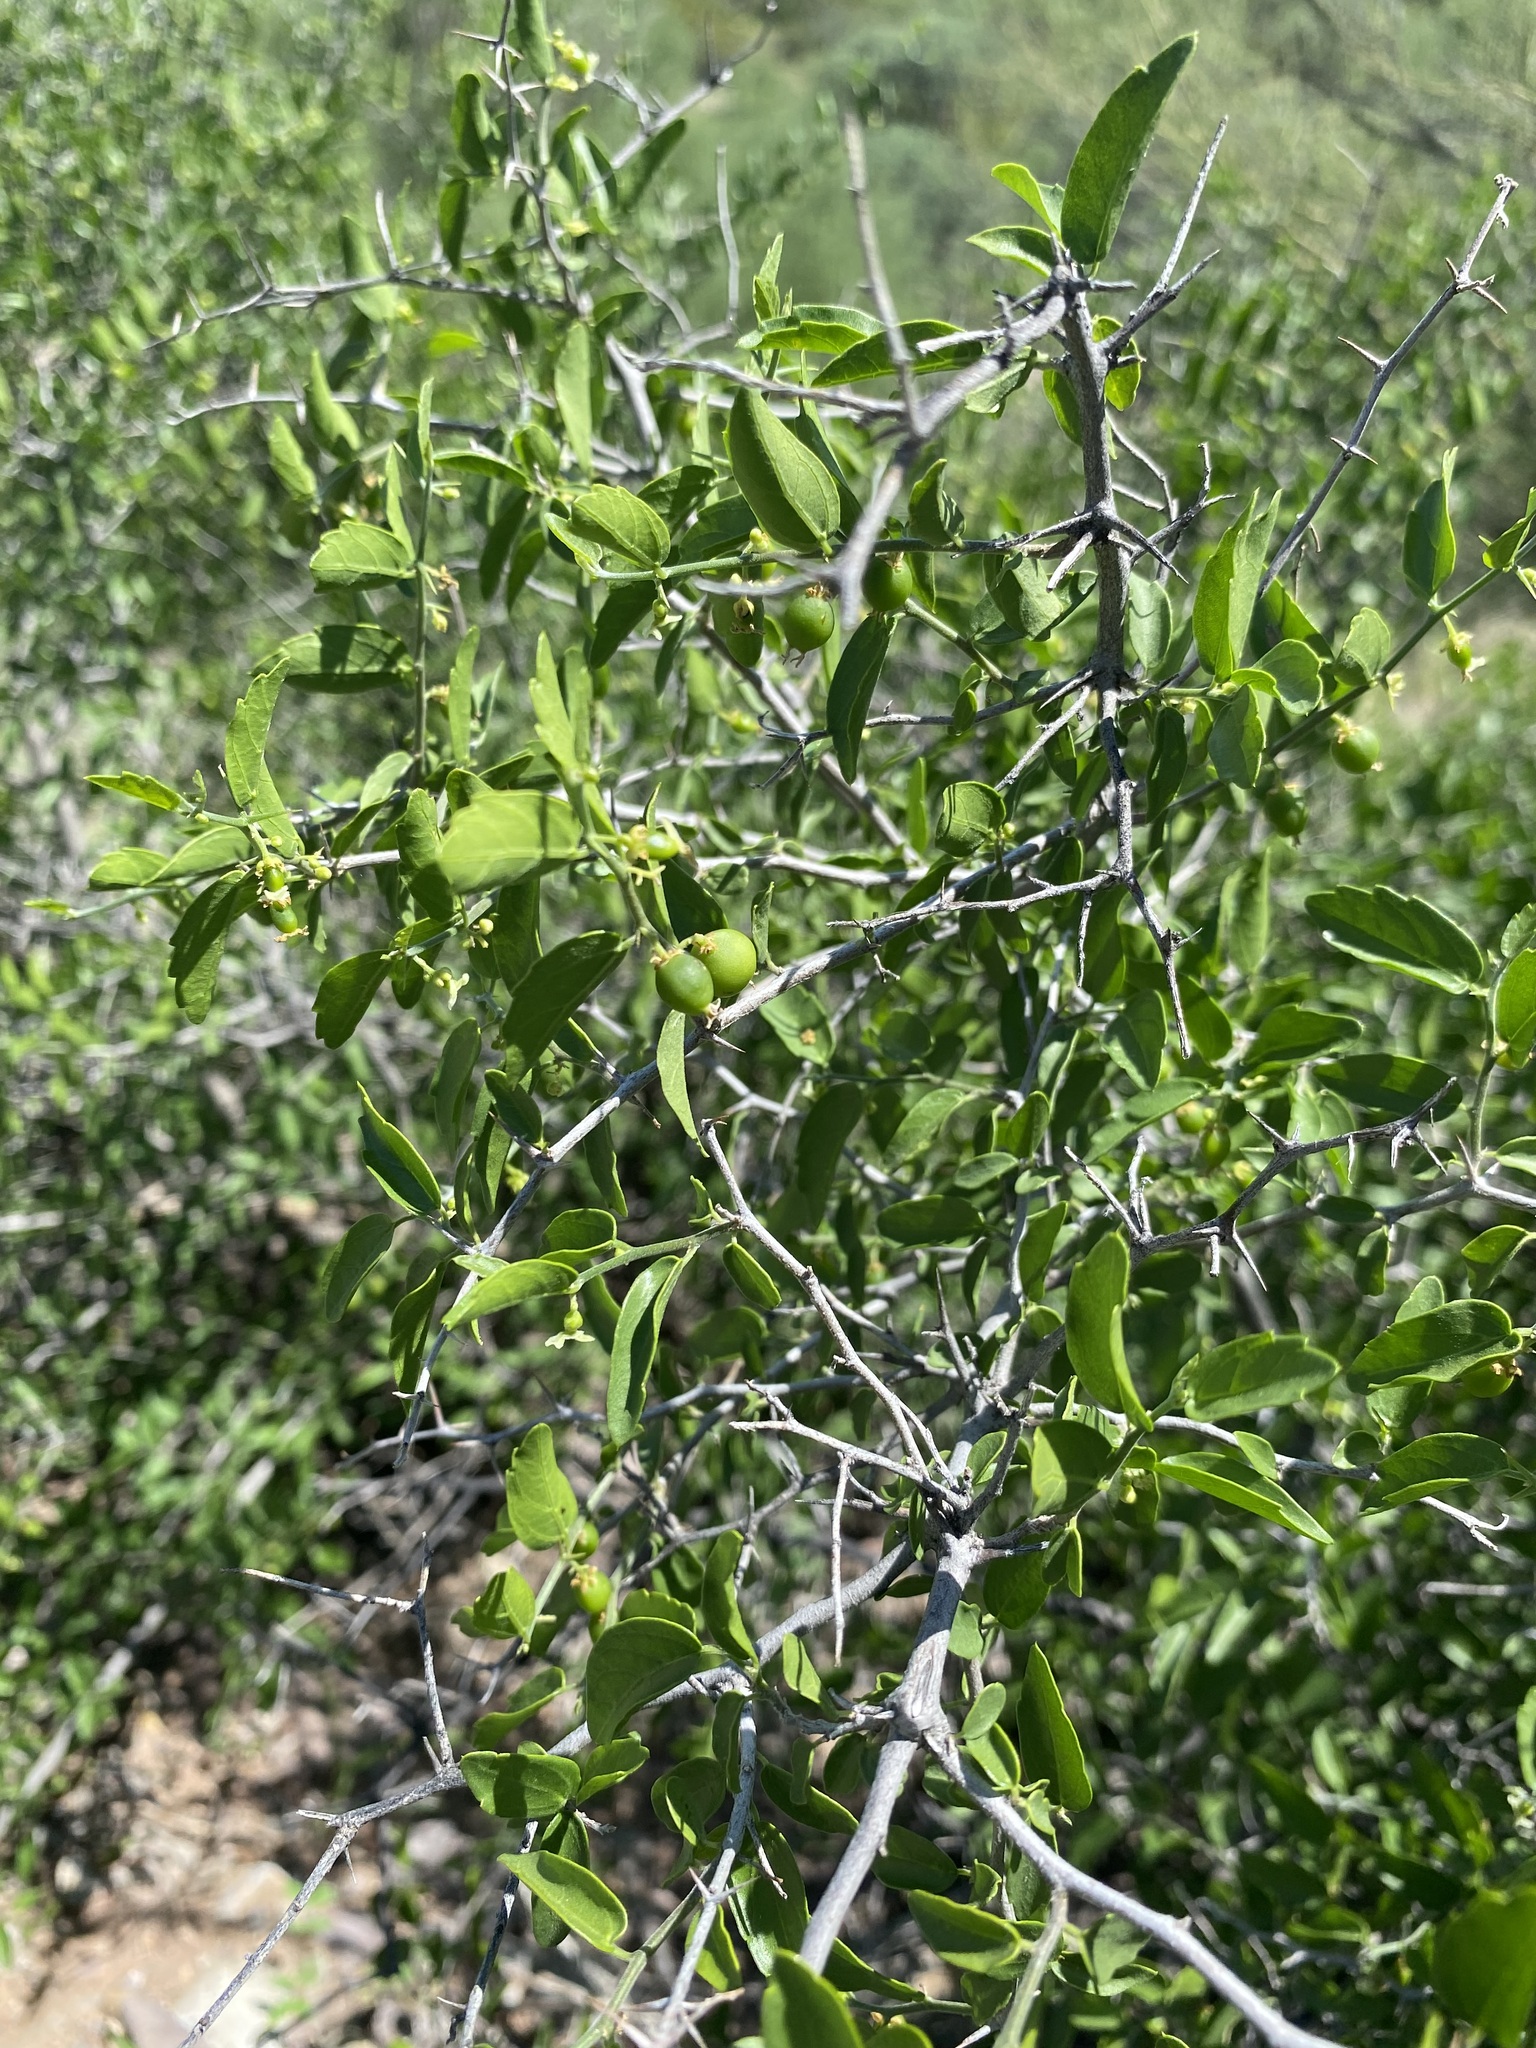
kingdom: Plantae
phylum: Tracheophyta
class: Magnoliopsida
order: Rosales
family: Cannabaceae
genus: Celtis
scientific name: Celtis pallida
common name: Desert hackberry
